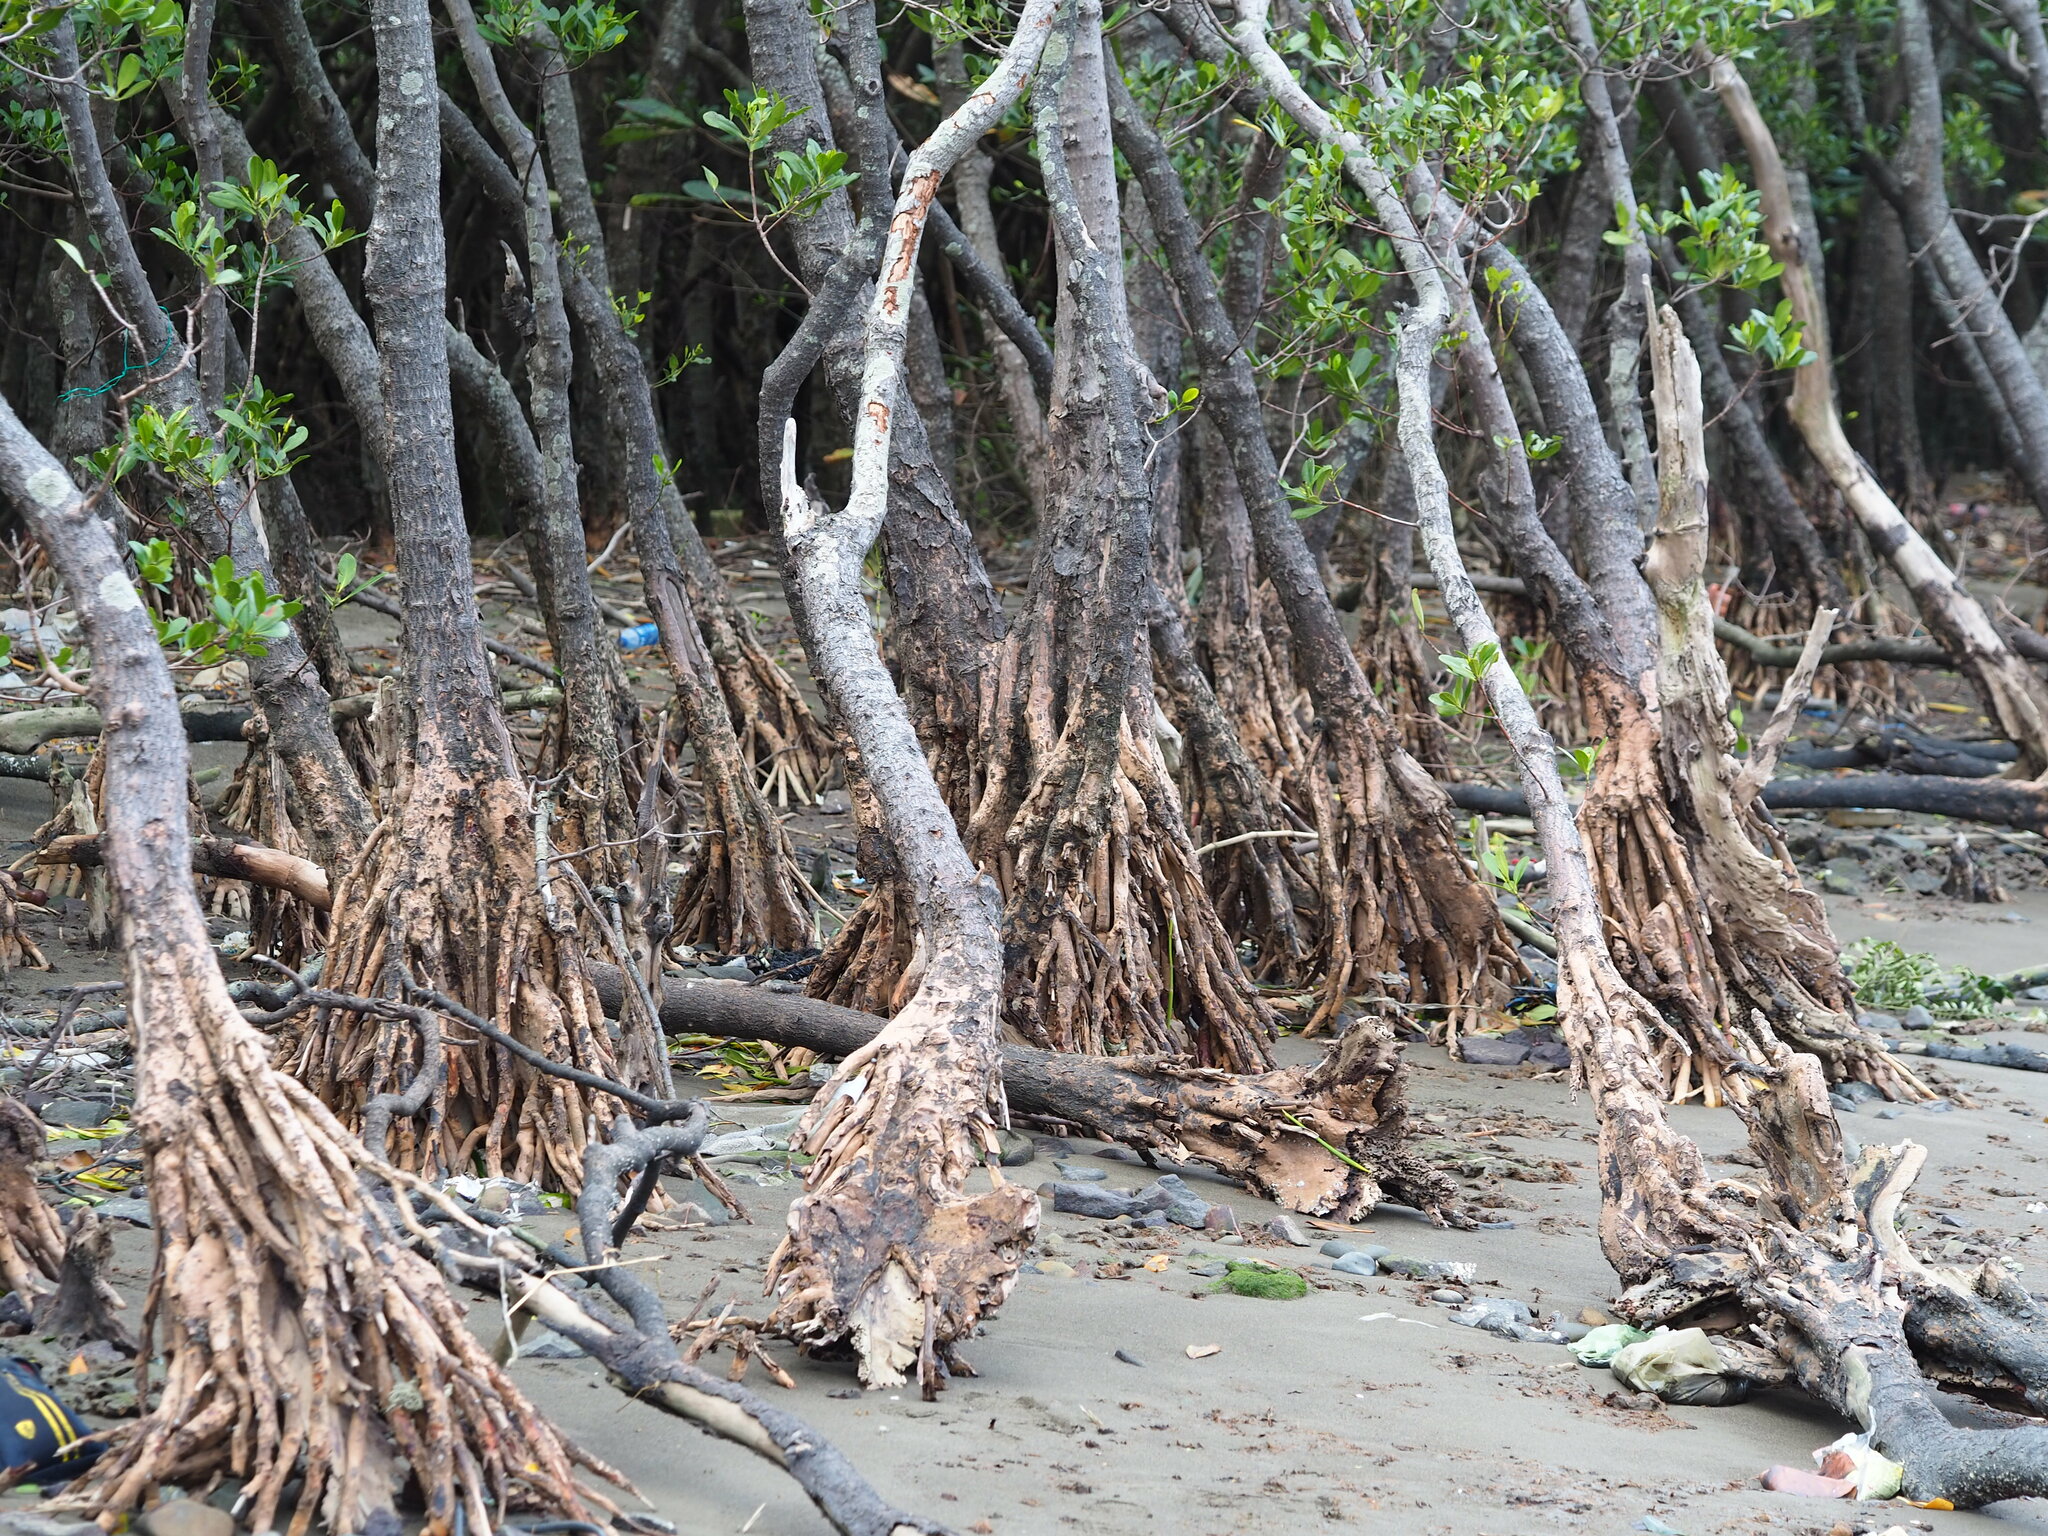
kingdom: Plantae
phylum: Tracheophyta
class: Magnoliopsida
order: Malpighiales
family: Rhizophoraceae
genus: Kandelia
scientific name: Kandelia obovata
